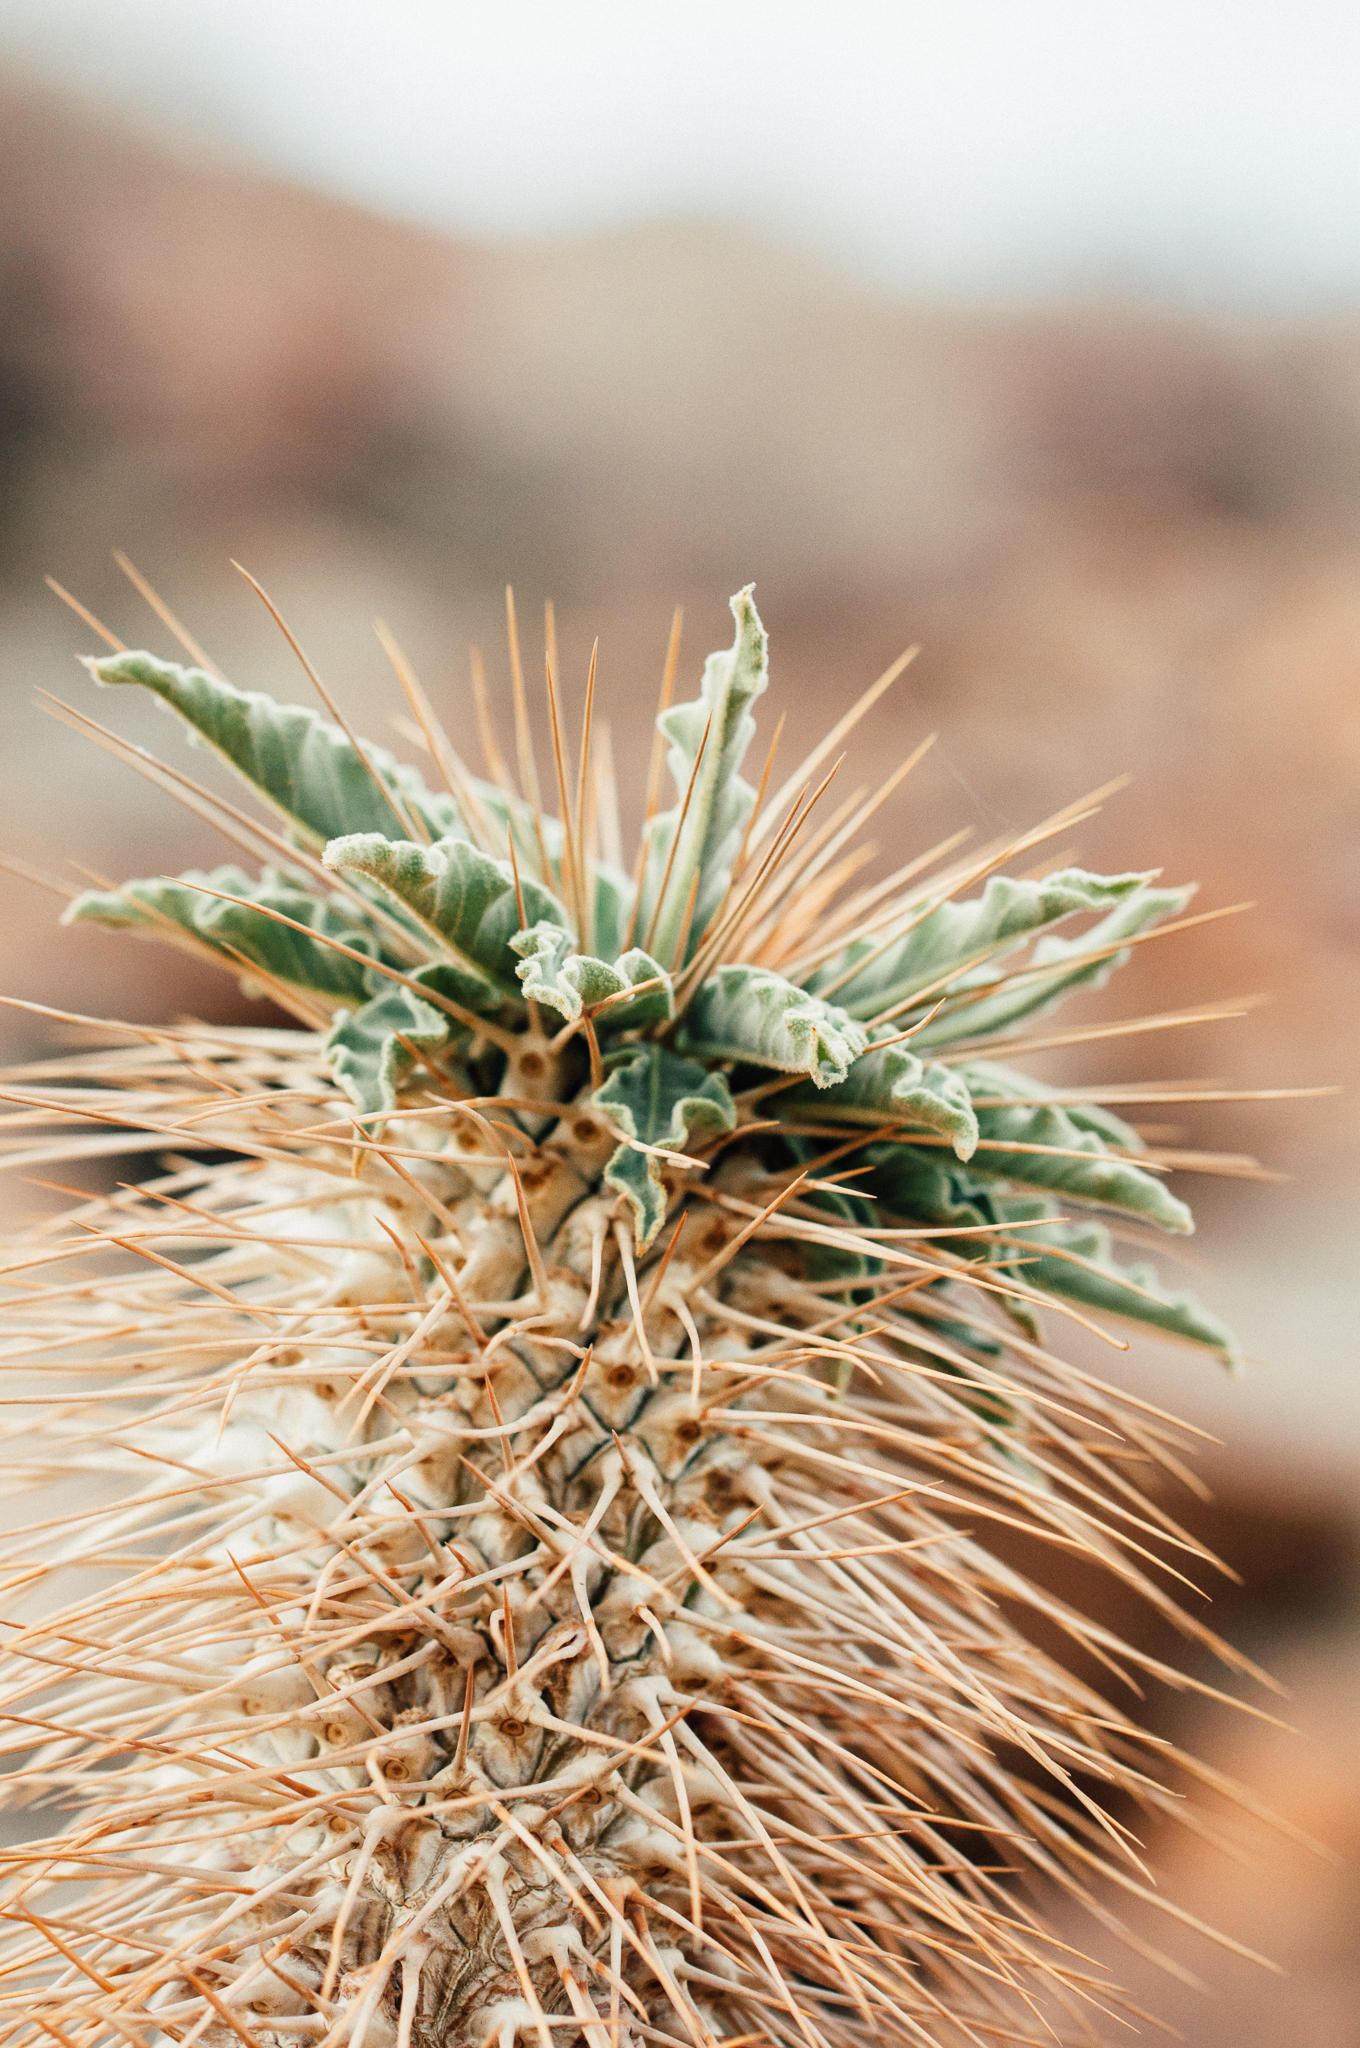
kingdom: Plantae
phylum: Tracheophyta
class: Magnoliopsida
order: Gentianales
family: Apocynaceae
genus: Pachypodium
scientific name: Pachypodium namaquanum
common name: Elephant's trunk
